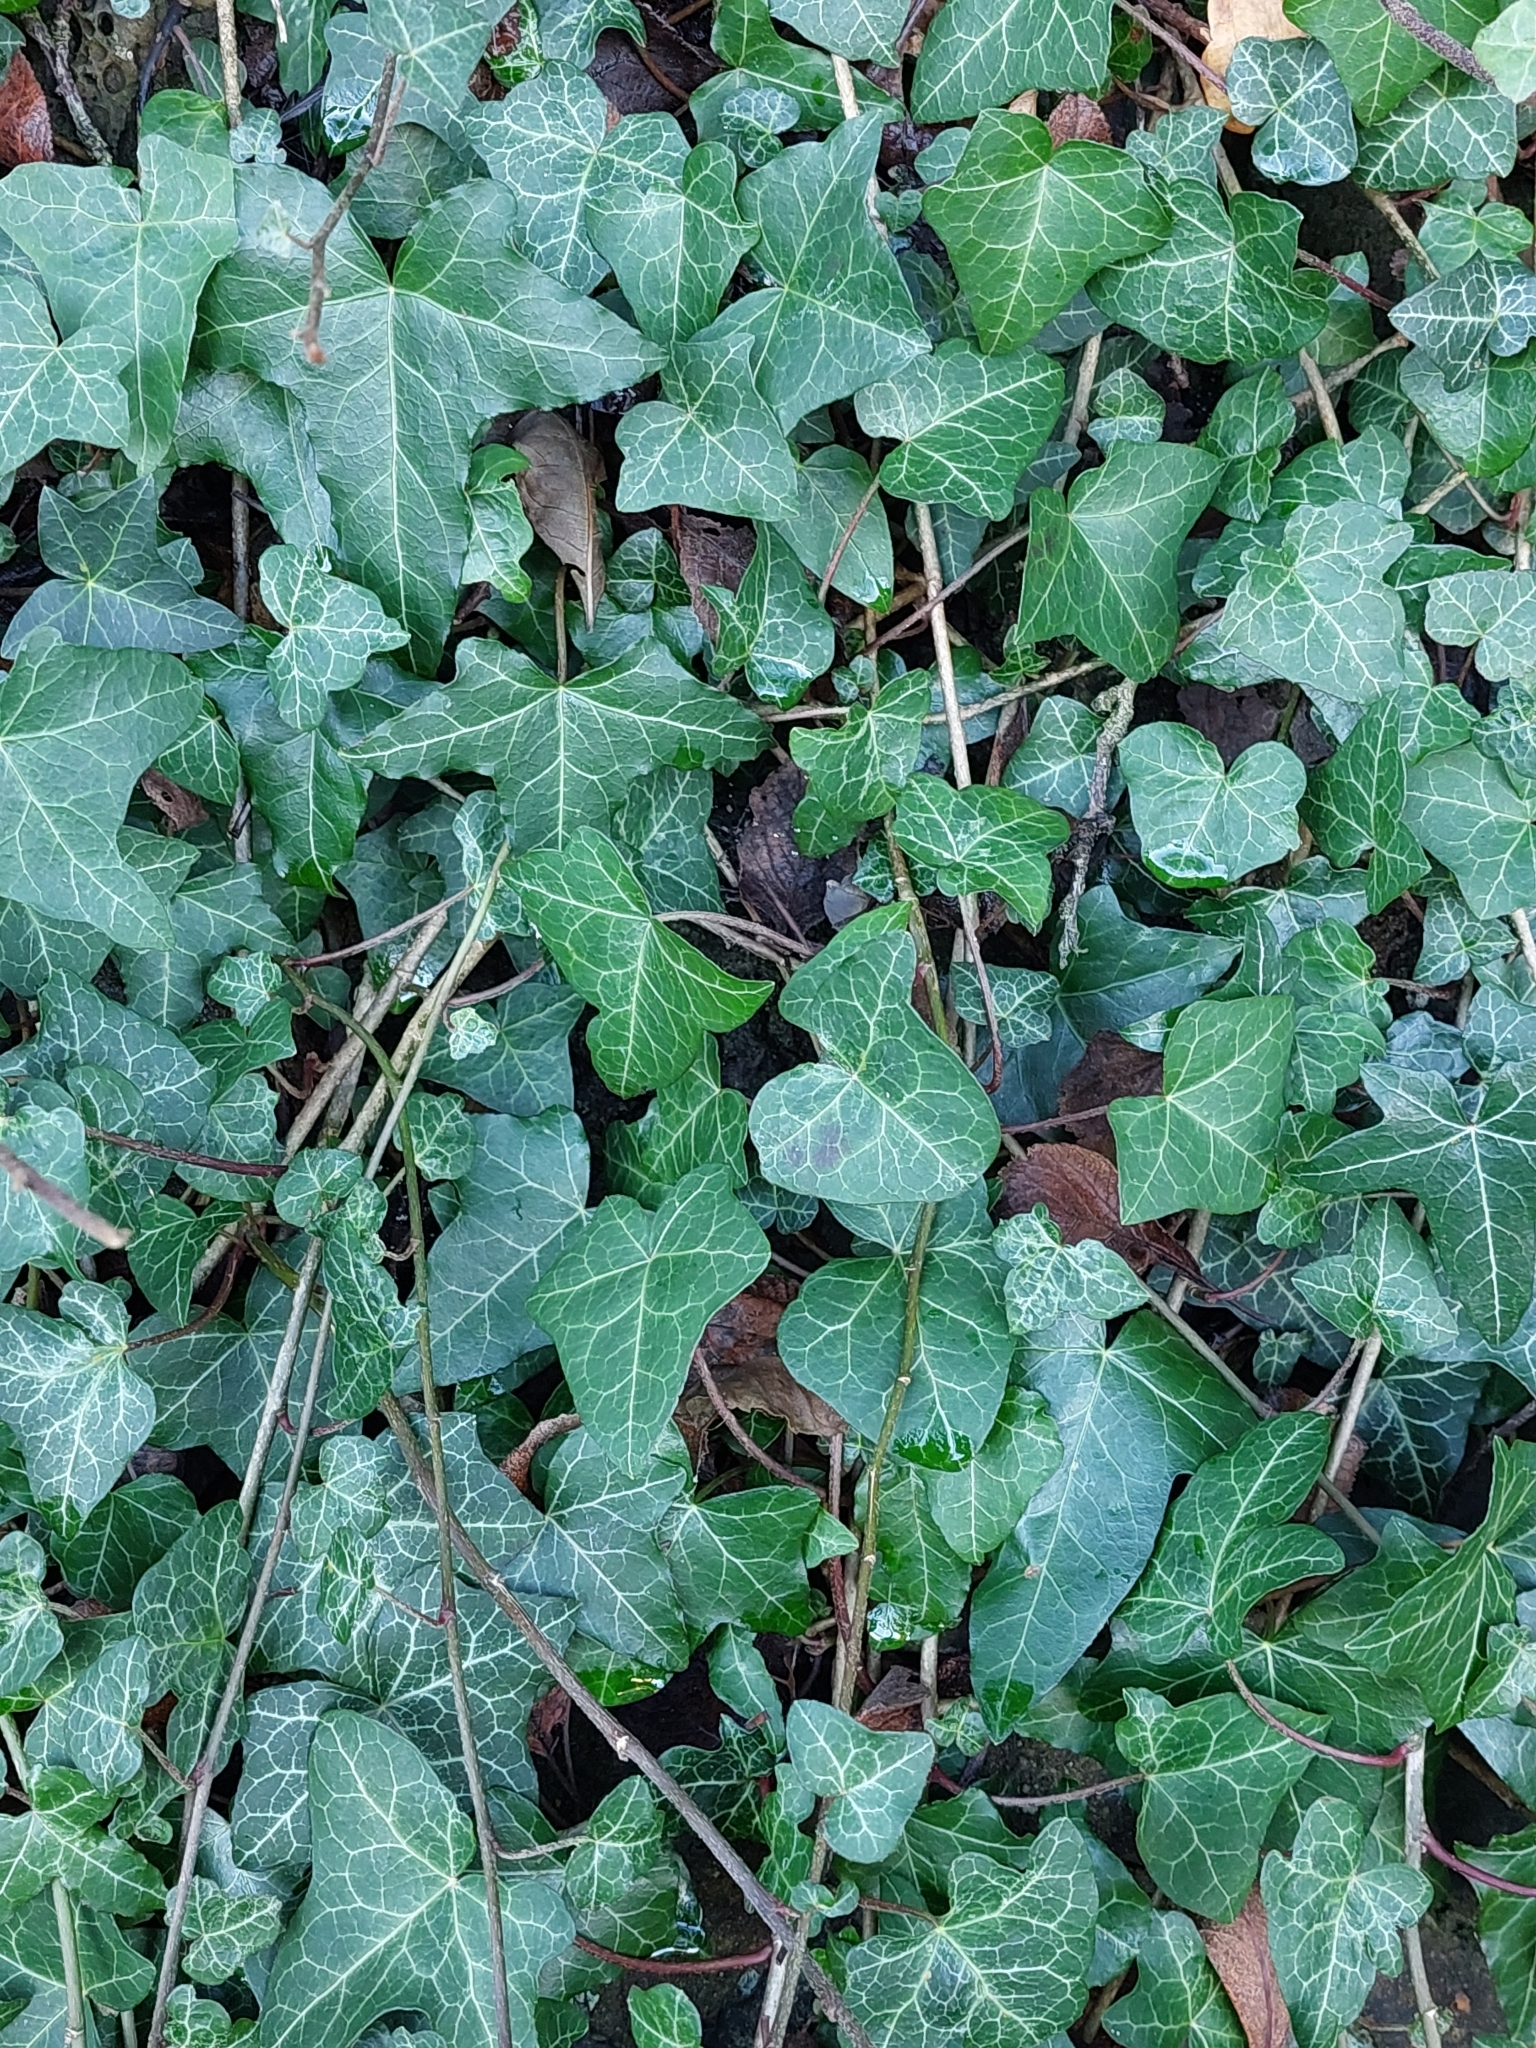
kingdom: Plantae
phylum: Tracheophyta
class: Magnoliopsida
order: Apiales
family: Araliaceae
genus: Hedera
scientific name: Hedera helix
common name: Ivy
